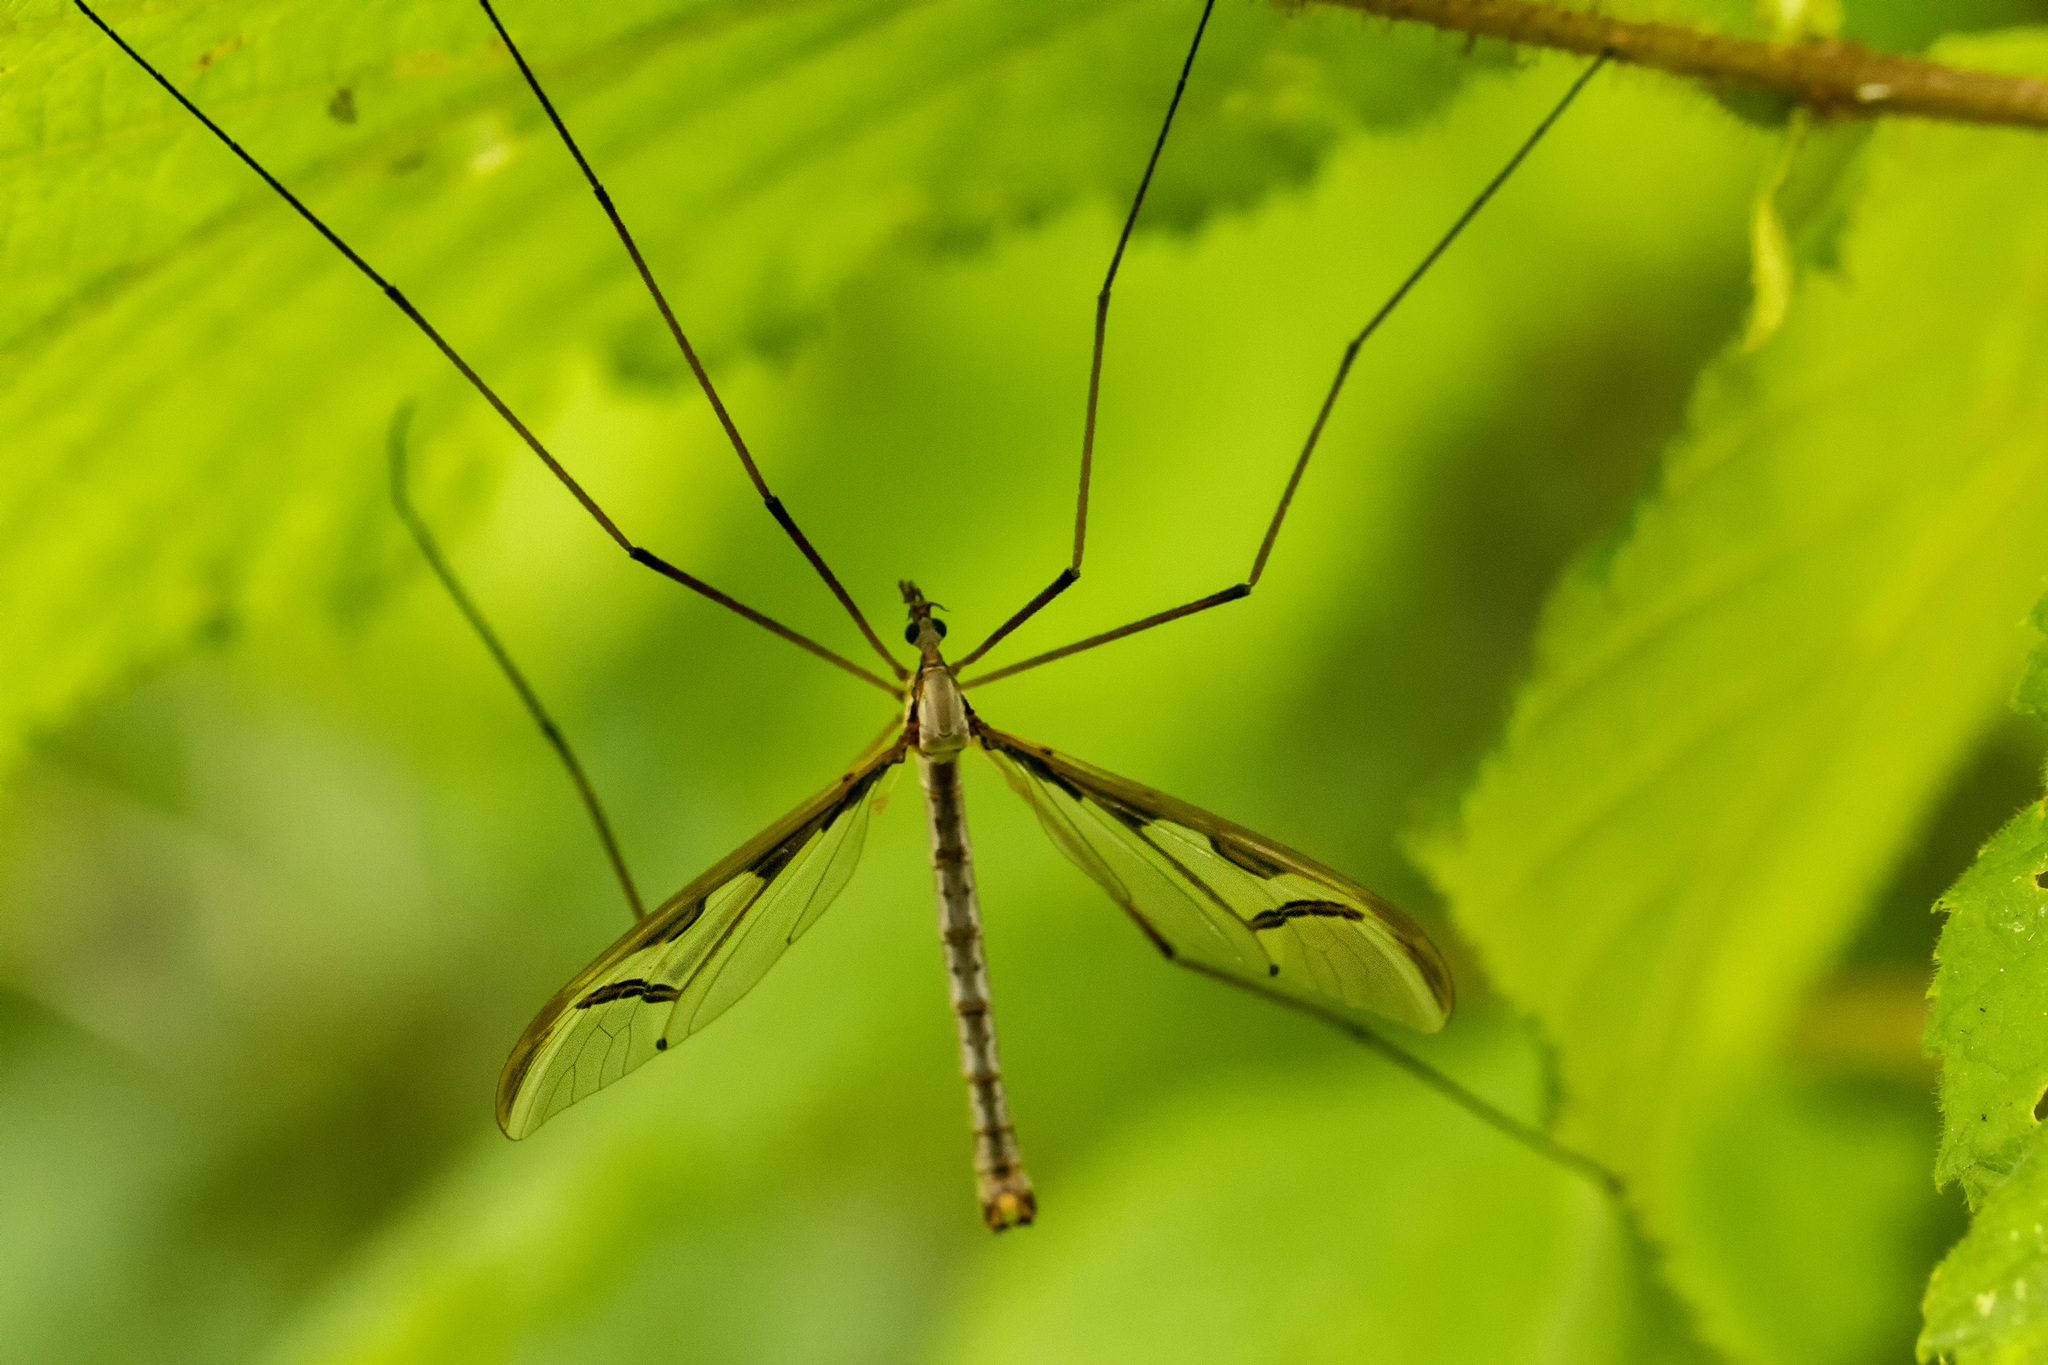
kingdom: Animalia
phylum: Arthropoda
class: Insecta
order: Diptera
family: Pediciidae
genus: Pedicia
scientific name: Pedicia rivosa
